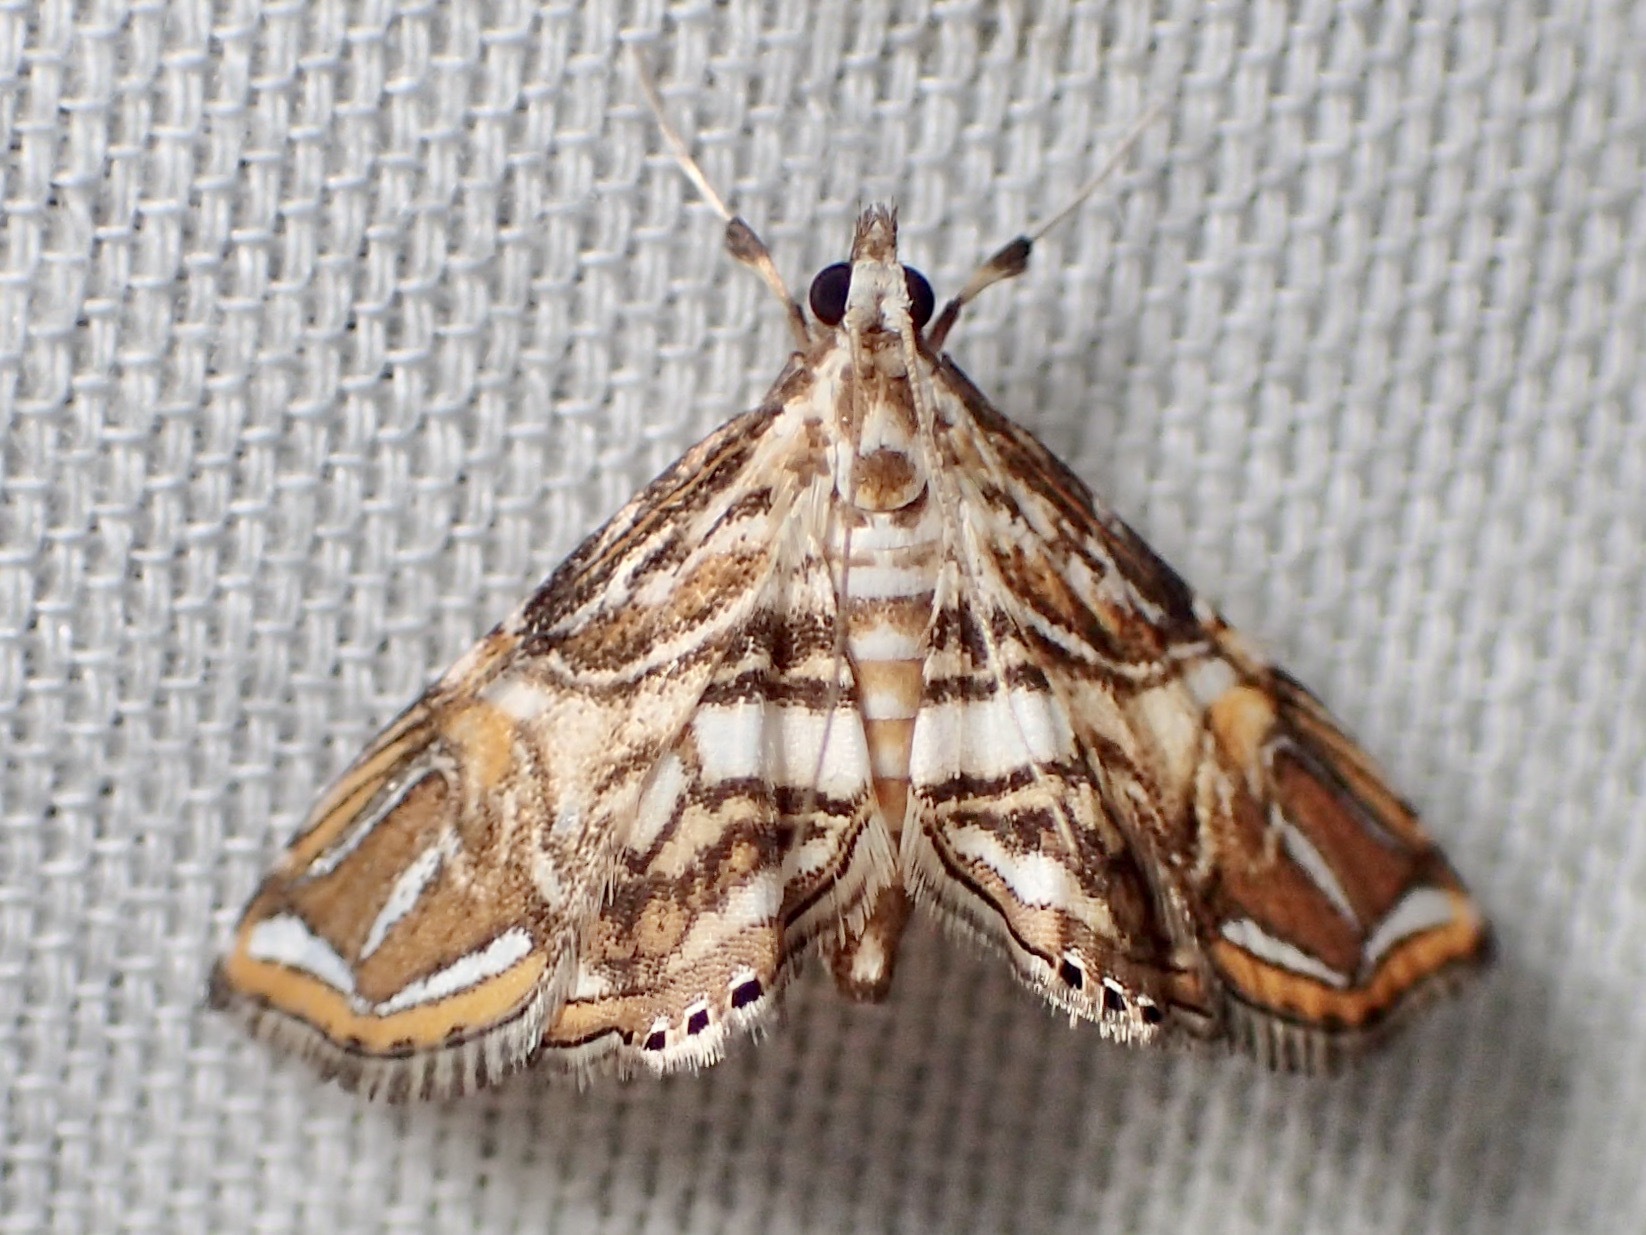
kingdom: Animalia
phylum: Arthropoda
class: Insecta
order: Lepidoptera
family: Crambidae
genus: Paracymoriza
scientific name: Paracymoriza
